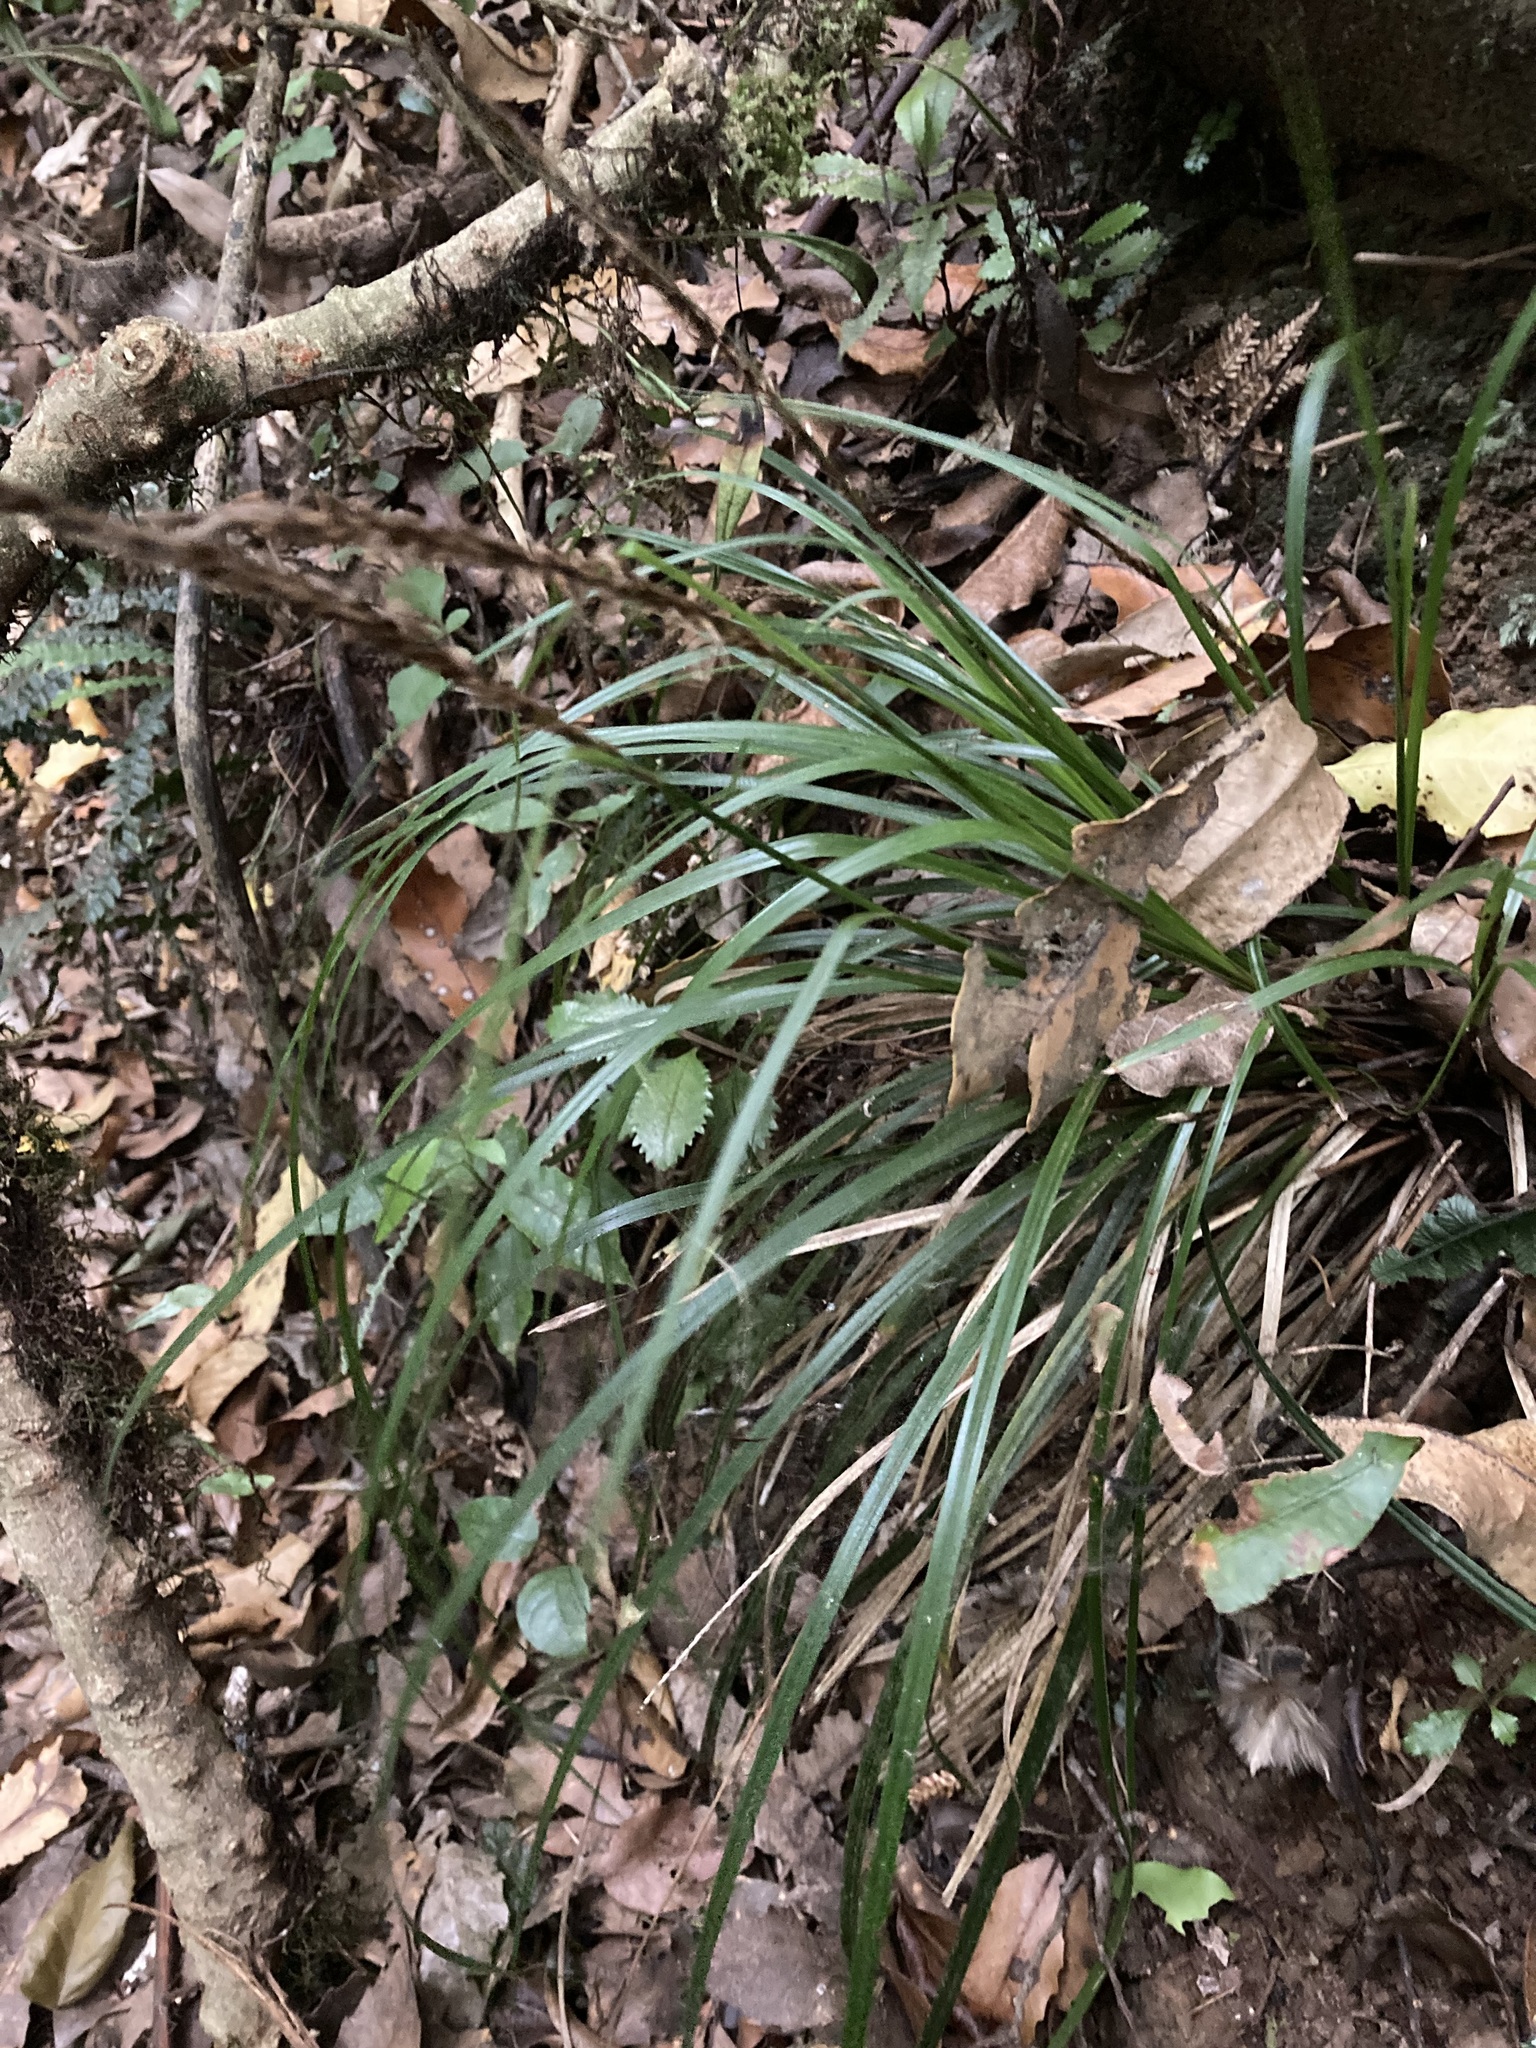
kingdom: Plantae
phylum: Tracheophyta
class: Liliopsida
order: Poales
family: Cyperaceae
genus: Carex
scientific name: Carex uncinata
